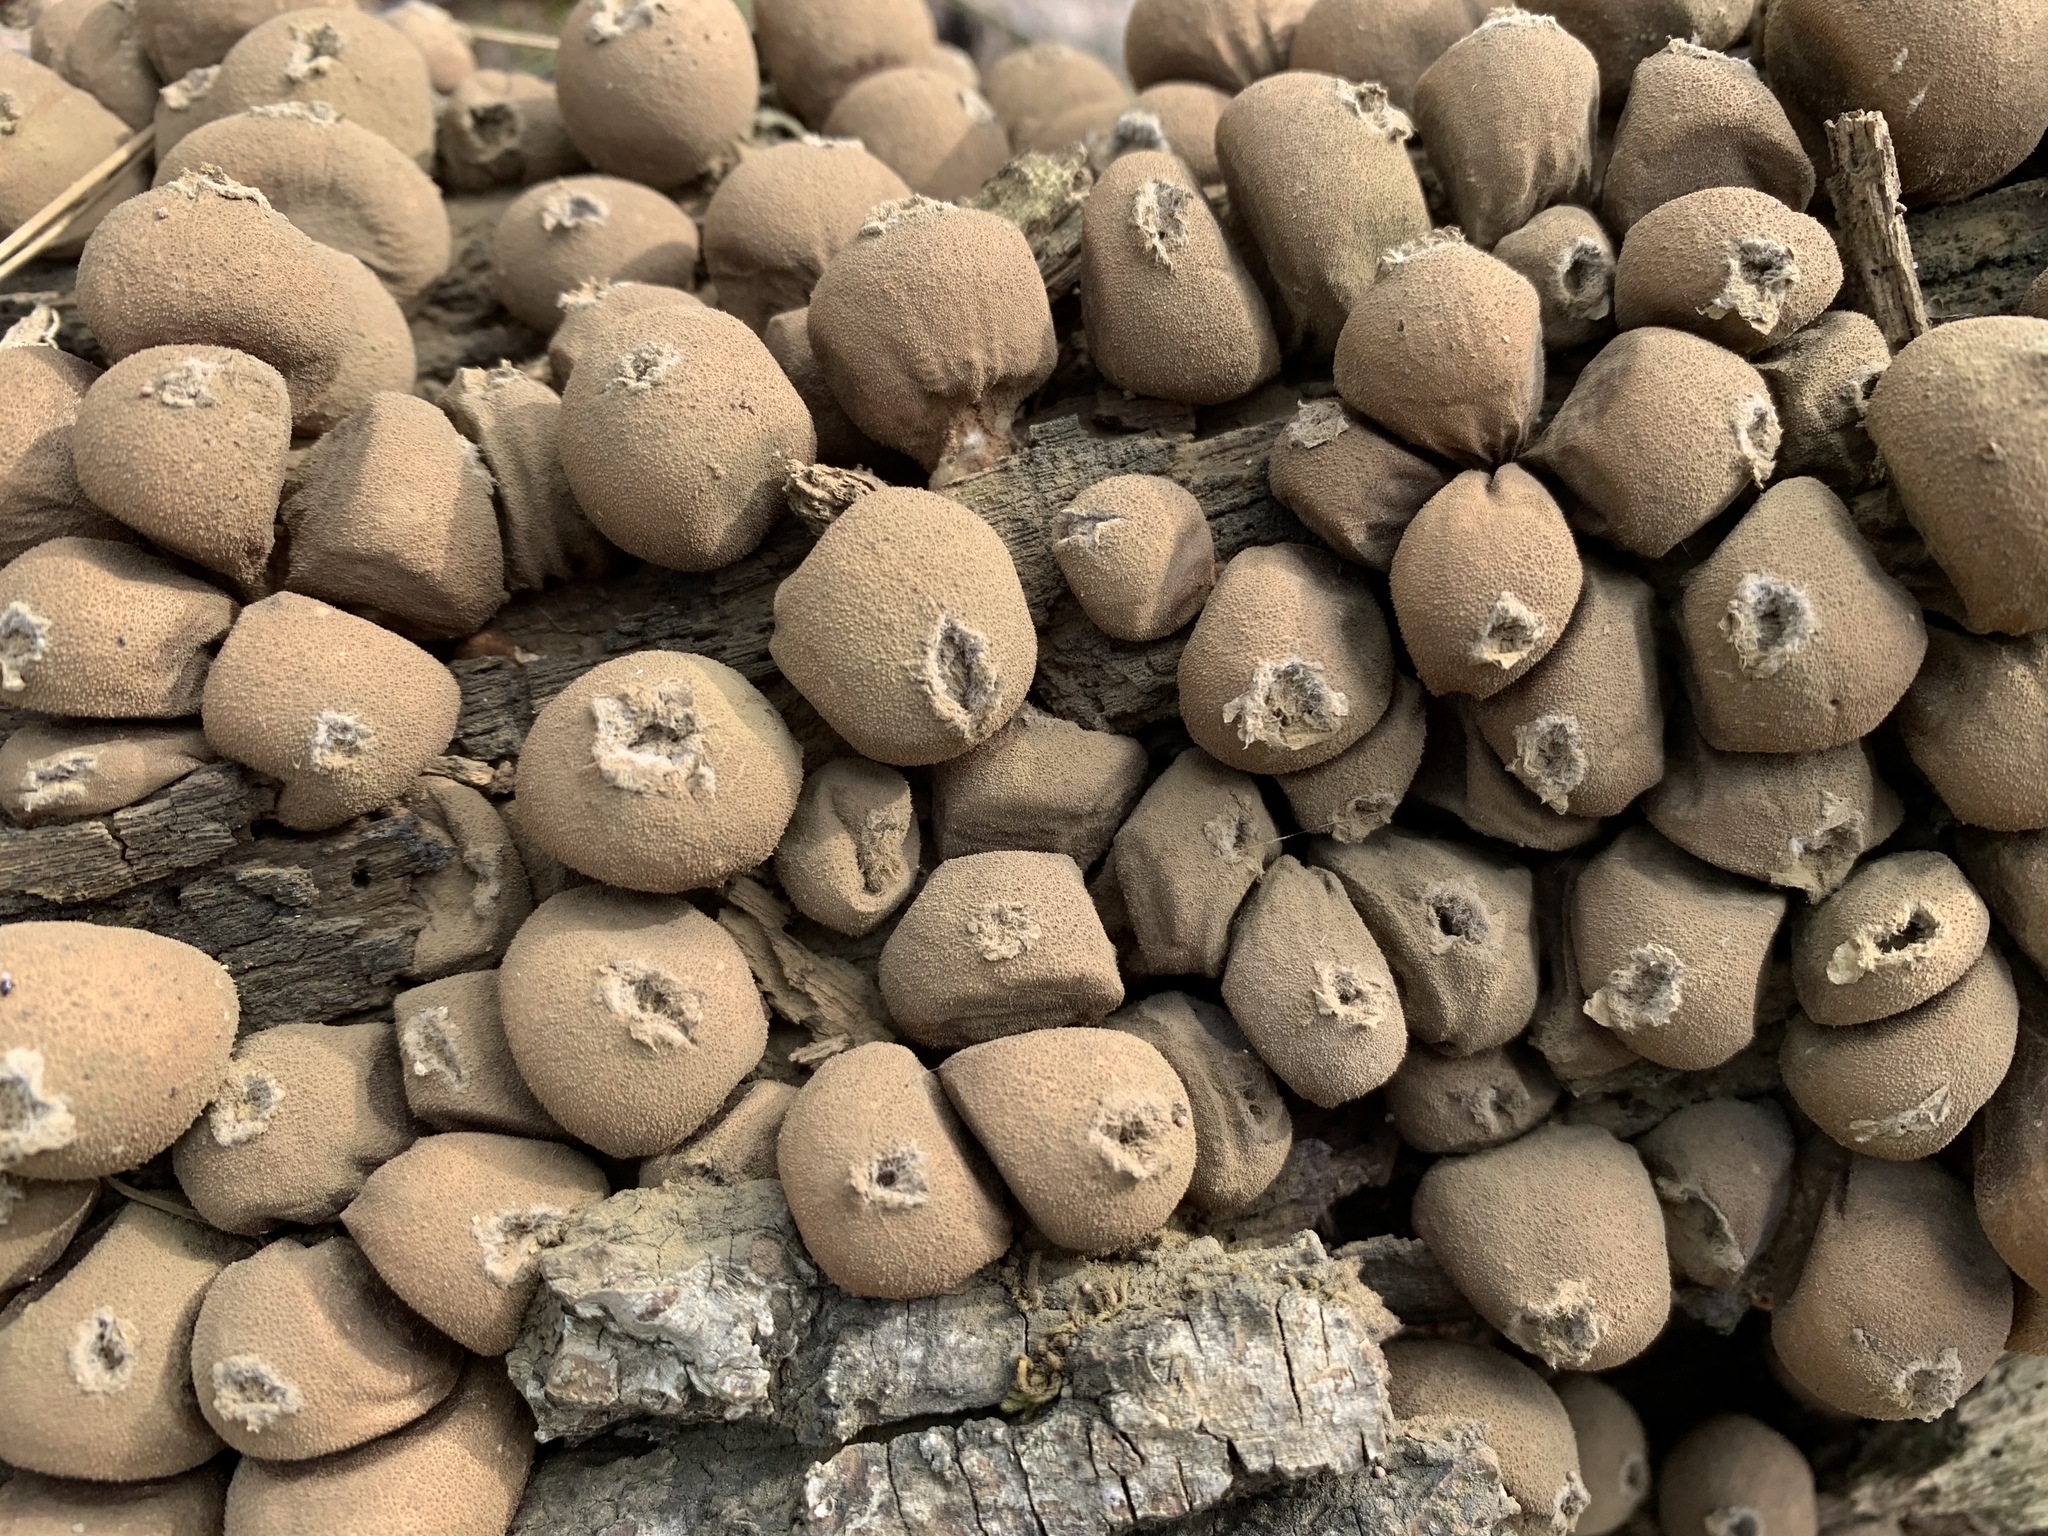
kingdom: Fungi
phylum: Basidiomycota
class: Agaricomycetes
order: Agaricales
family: Lycoperdaceae
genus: Apioperdon
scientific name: Apioperdon pyriforme
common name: Pear-shaped puffball
